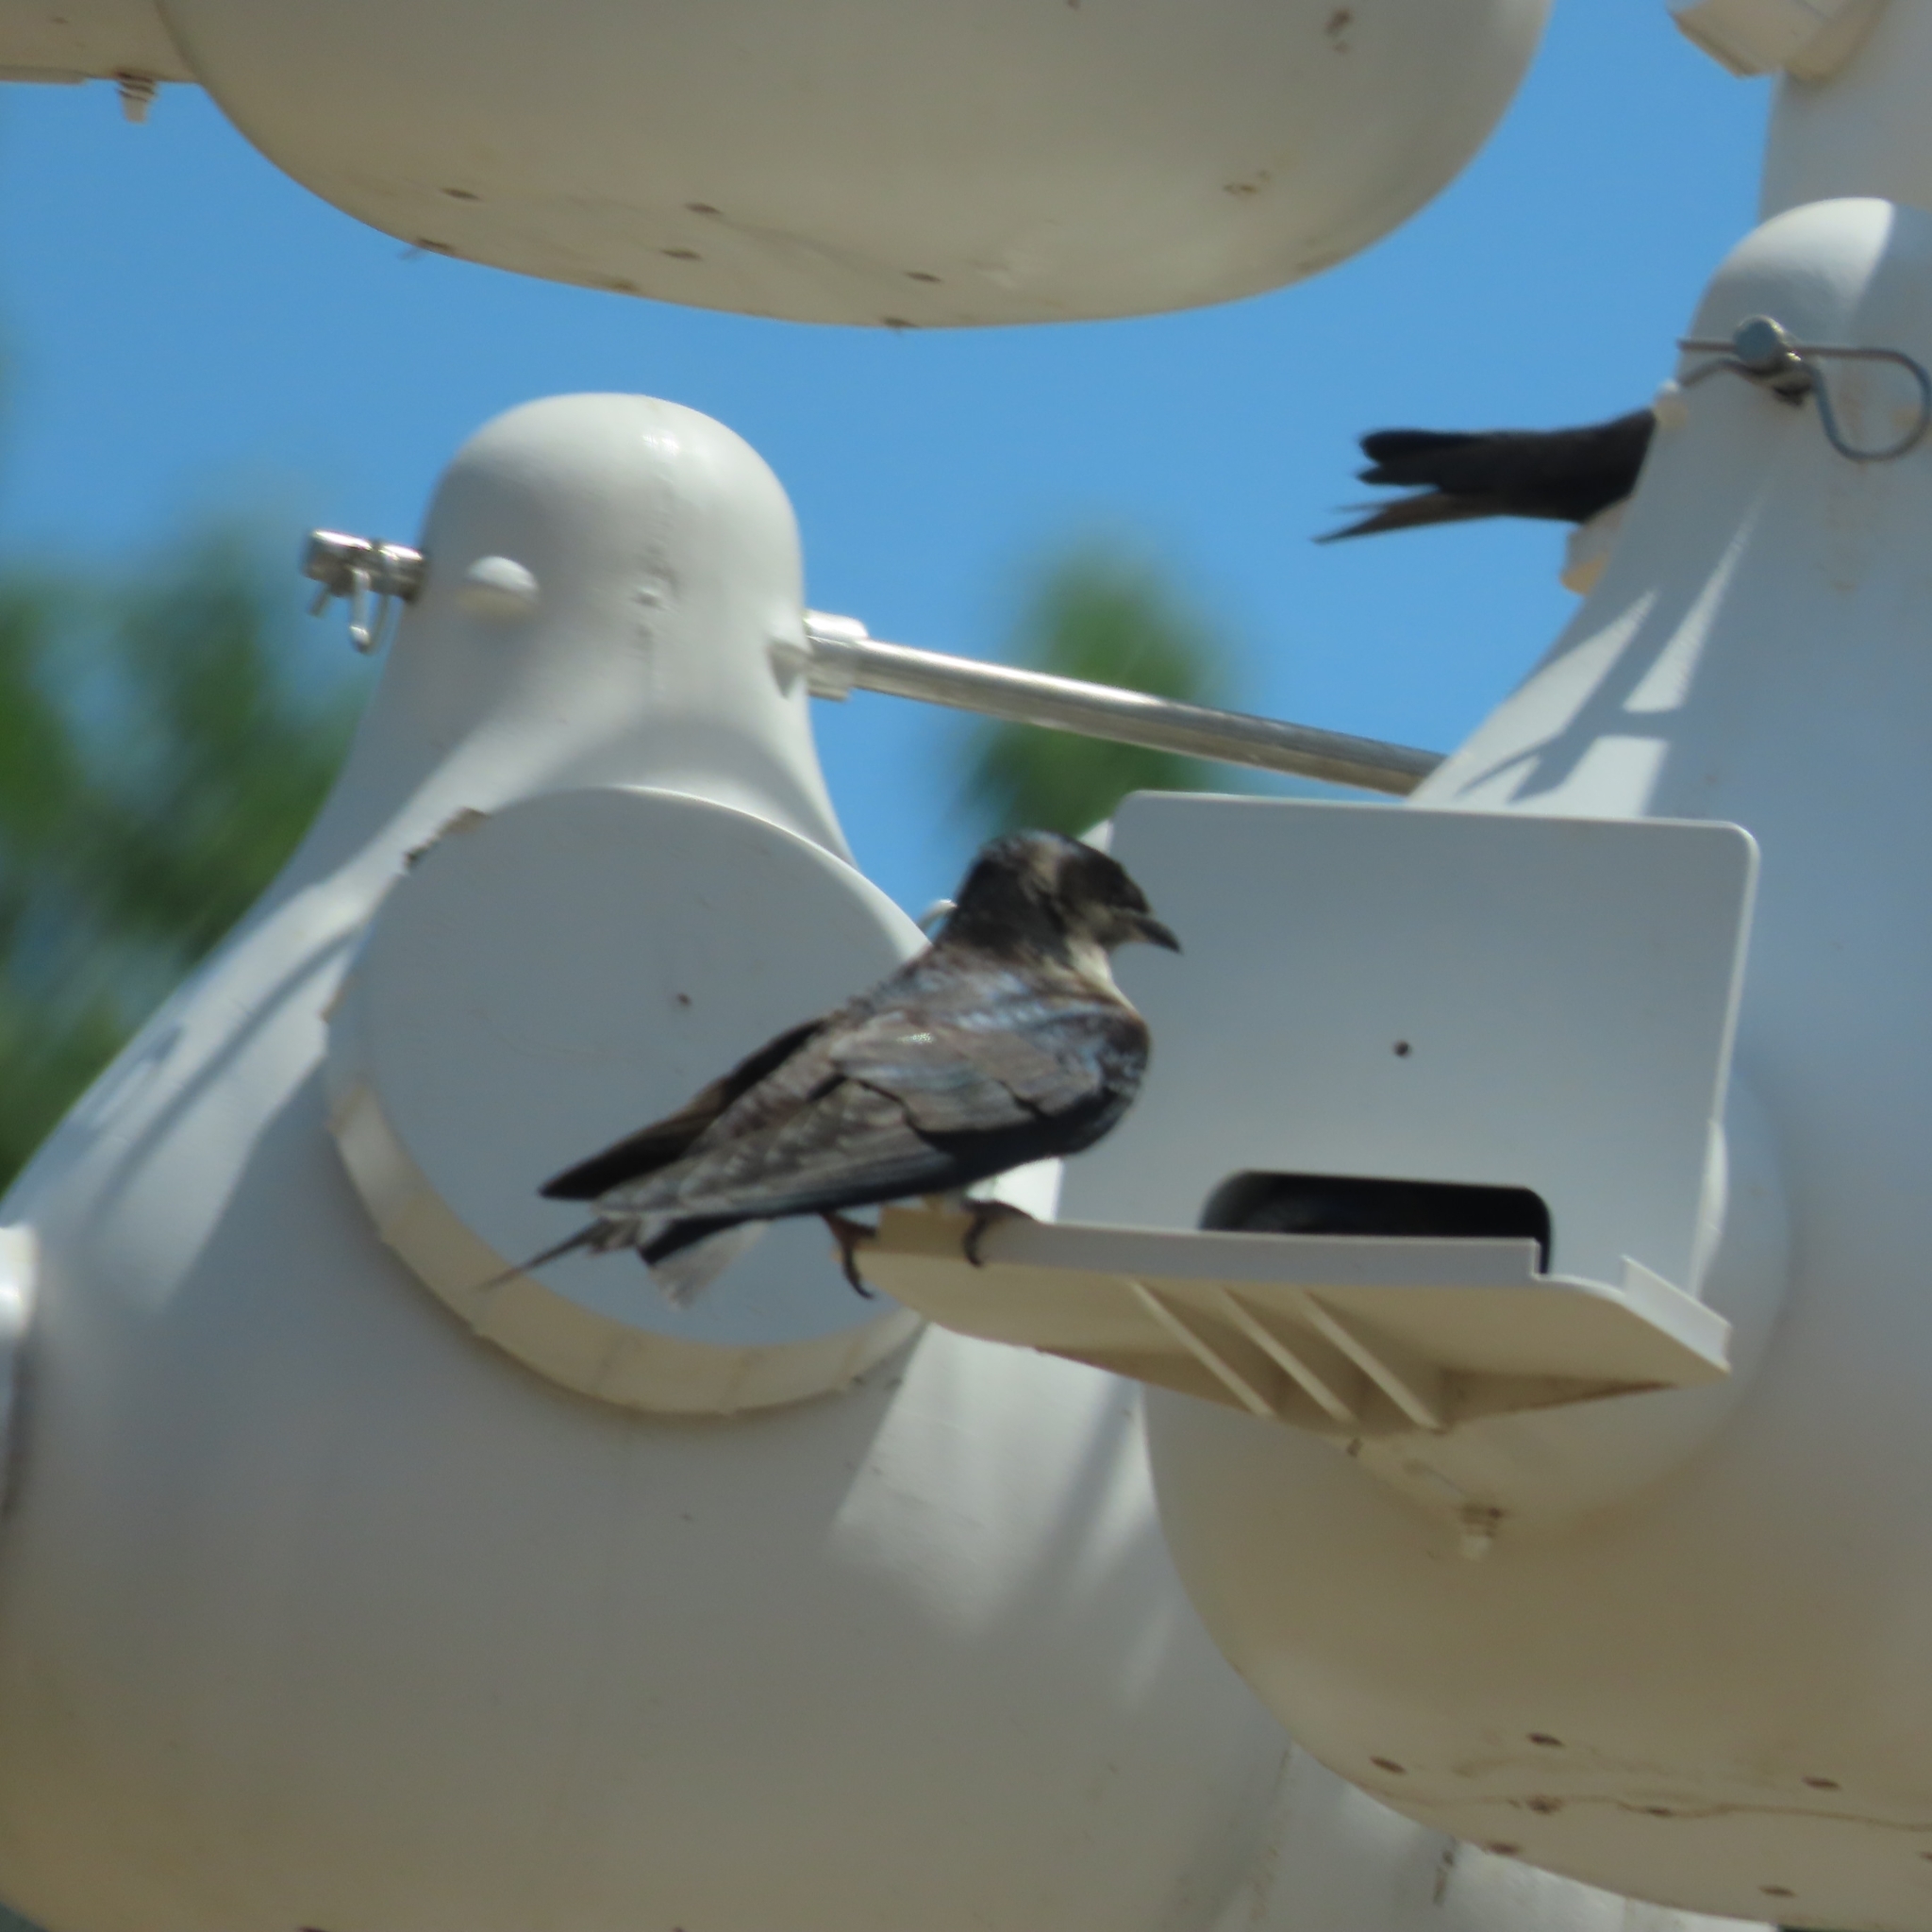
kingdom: Animalia
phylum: Chordata
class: Aves
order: Passeriformes
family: Hirundinidae
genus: Progne
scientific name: Progne subis
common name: Purple martin
